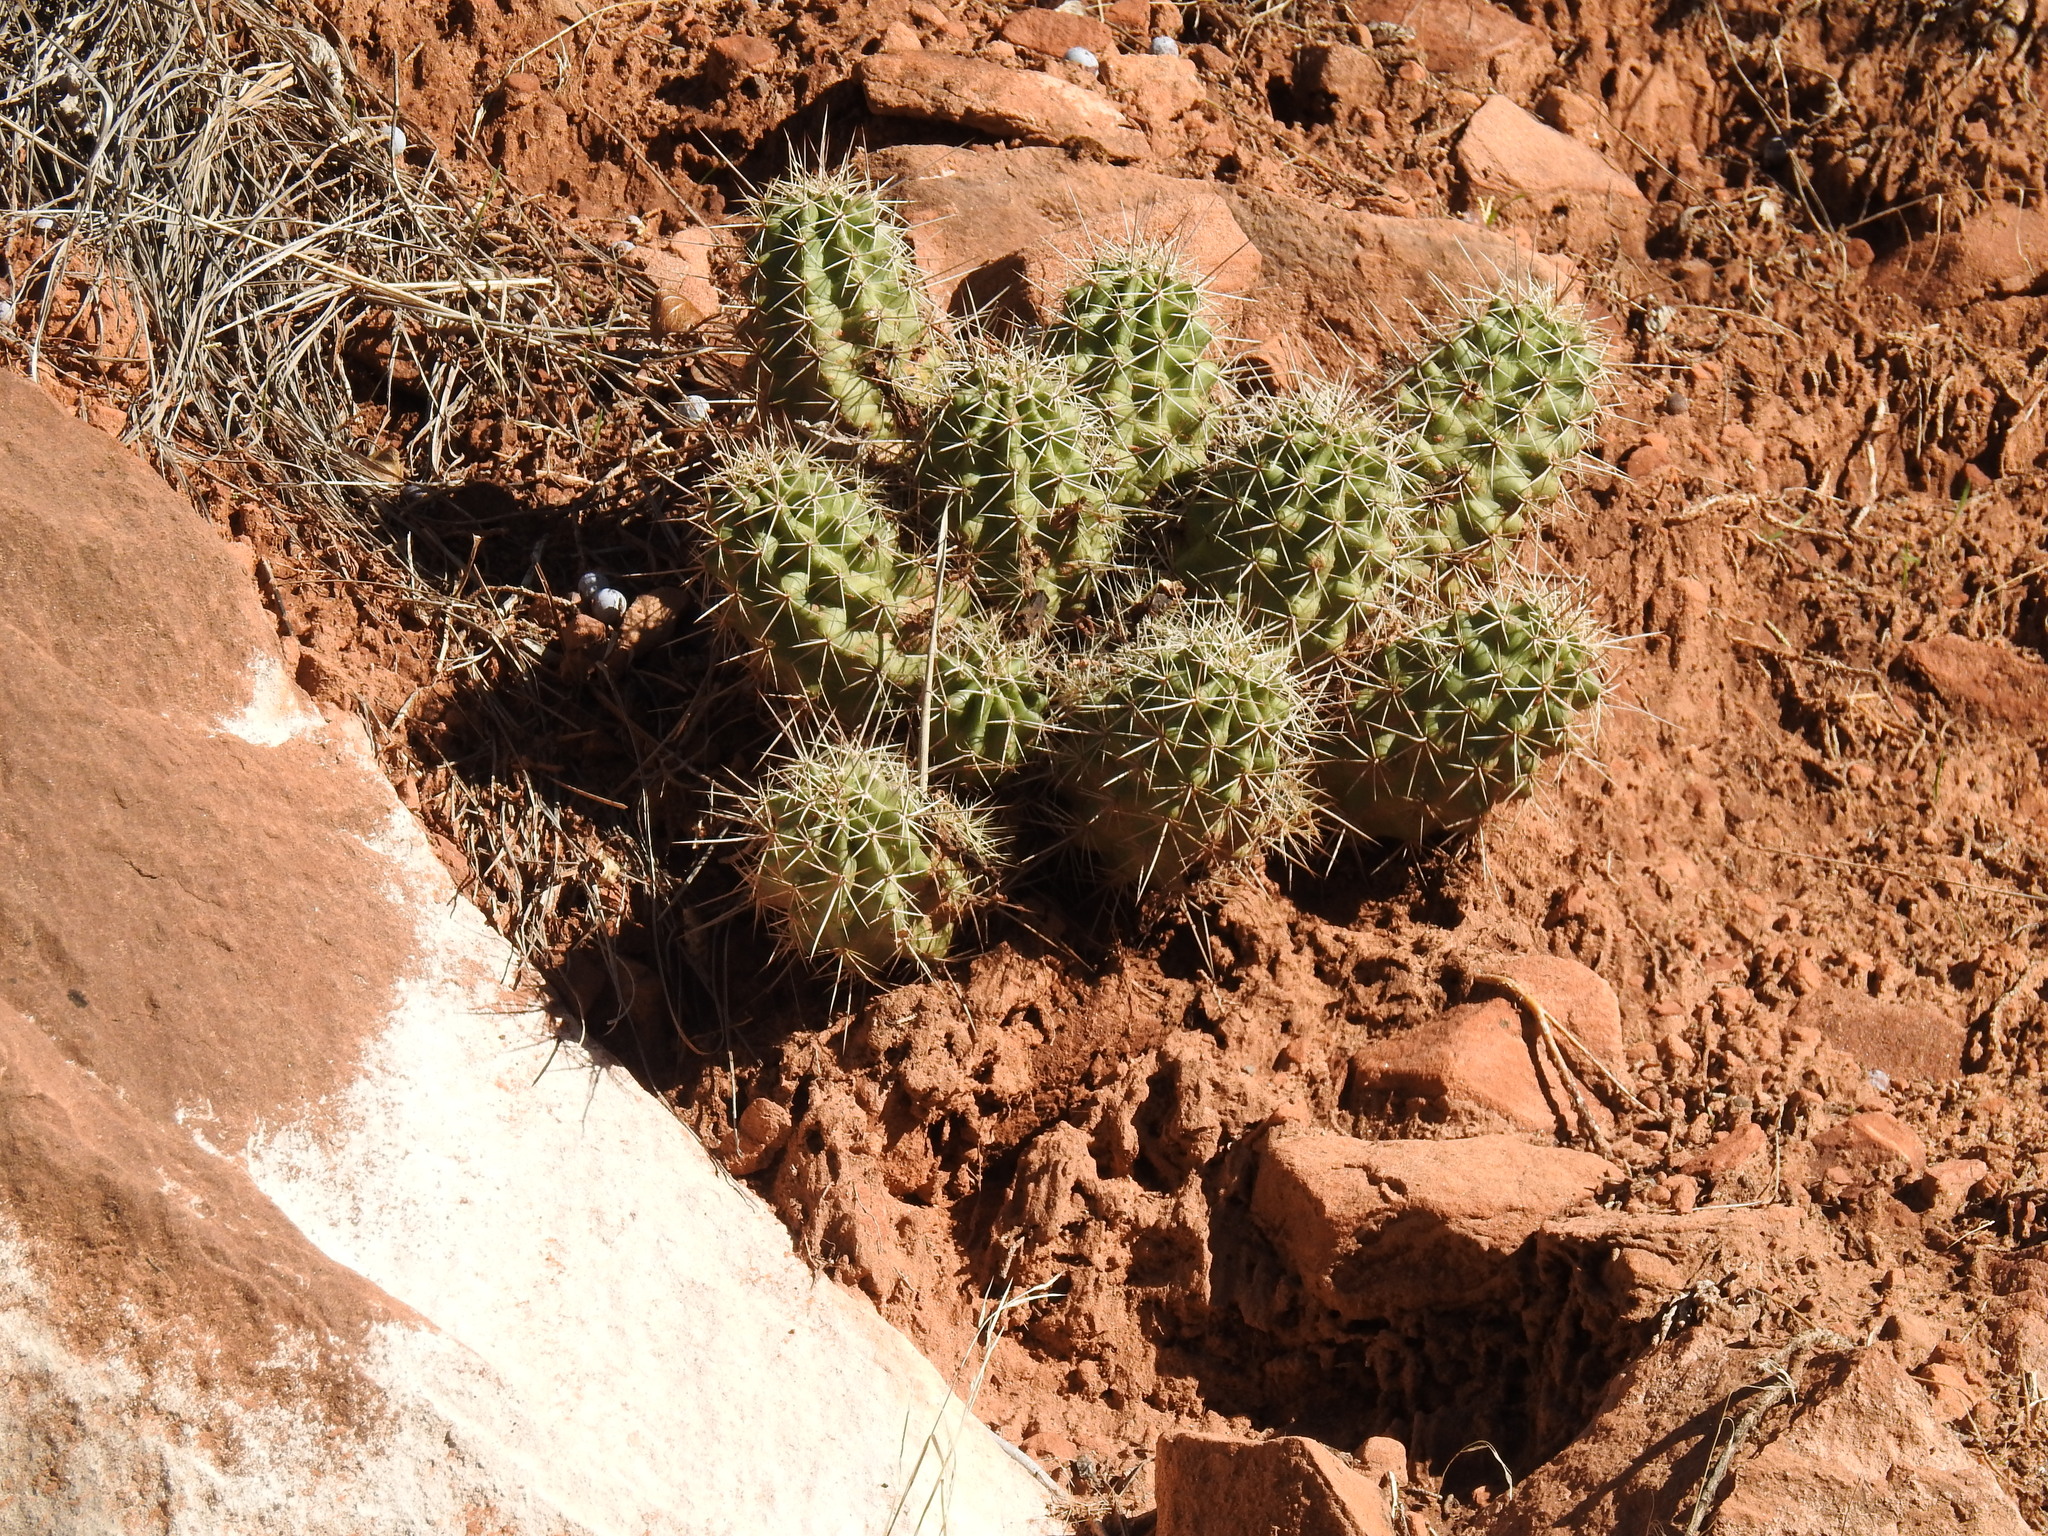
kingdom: Plantae
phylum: Tracheophyta
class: Magnoliopsida
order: Caryophyllales
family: Cactaceae
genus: Echinocereus
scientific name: Echinocereus triglochidiatus
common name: Claretcup hedgehog
